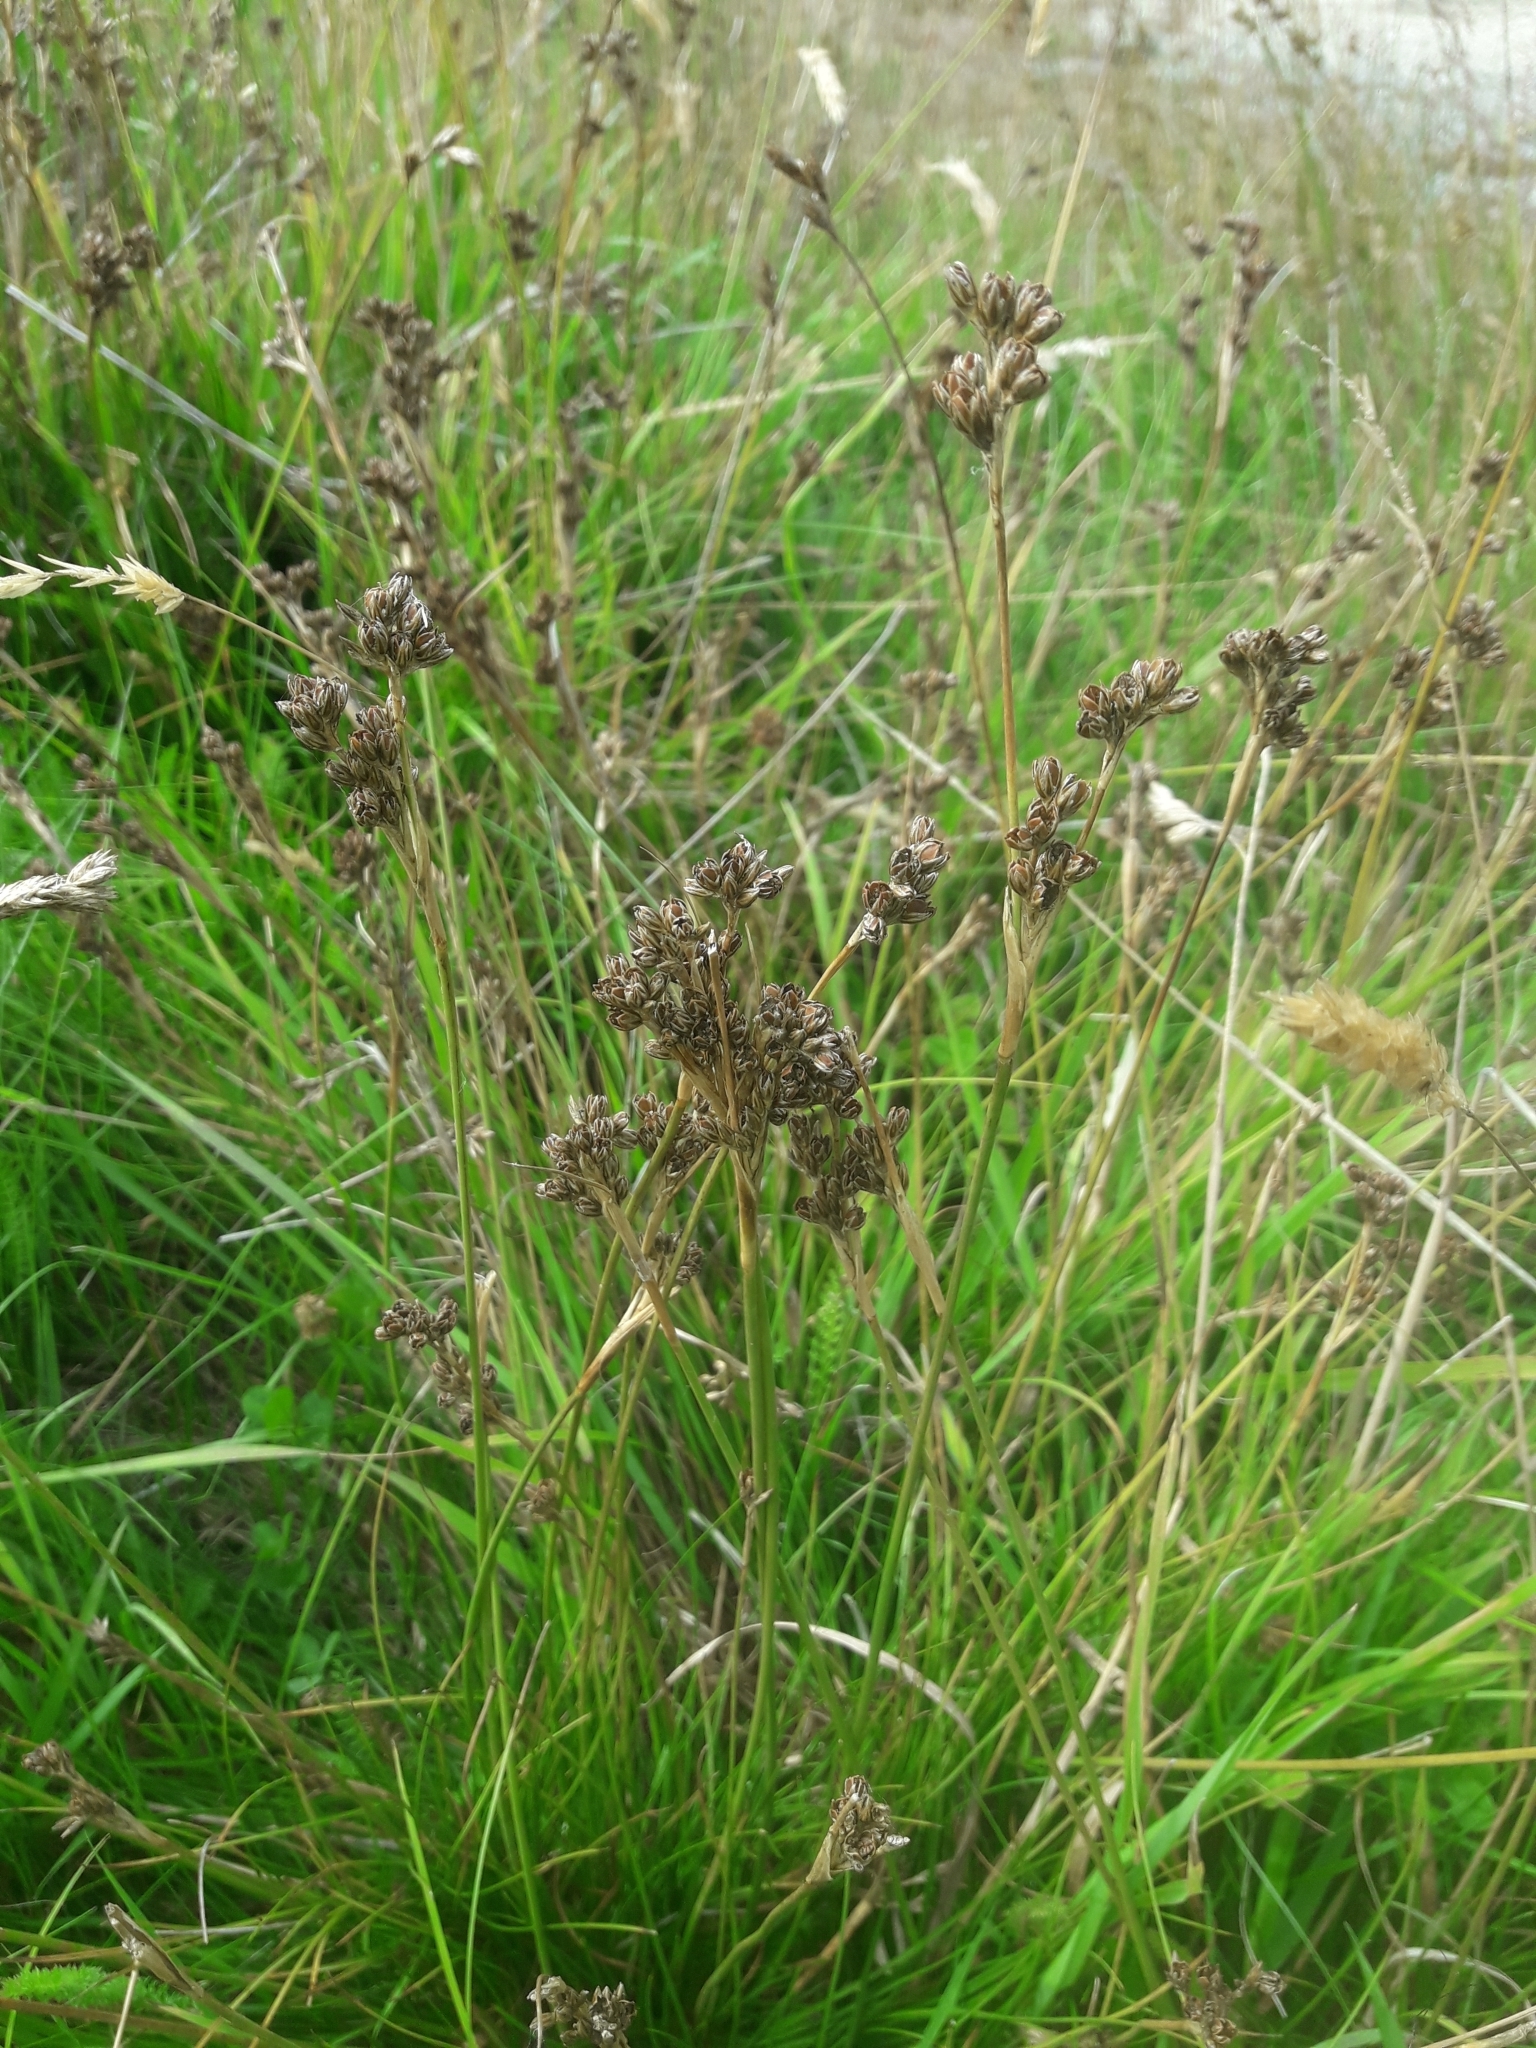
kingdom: Plantae
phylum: Tracheophyta
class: Liliopsida
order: Poales
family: Juncaceae
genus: Juncus
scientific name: Juncus squarrosus
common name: Heath rush
